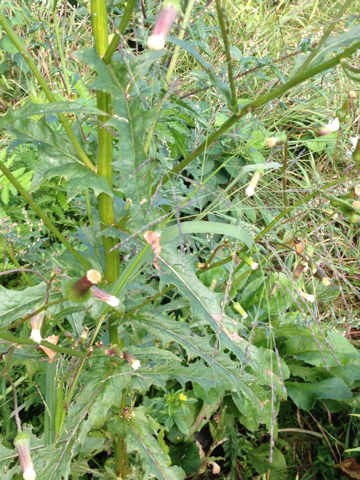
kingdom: Plantae
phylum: Tracheophyta
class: Magnoliopsida
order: Asterales
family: Asteraceae
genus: Erechtites
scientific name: Erechtites hieraciifolius
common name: American burnweed
